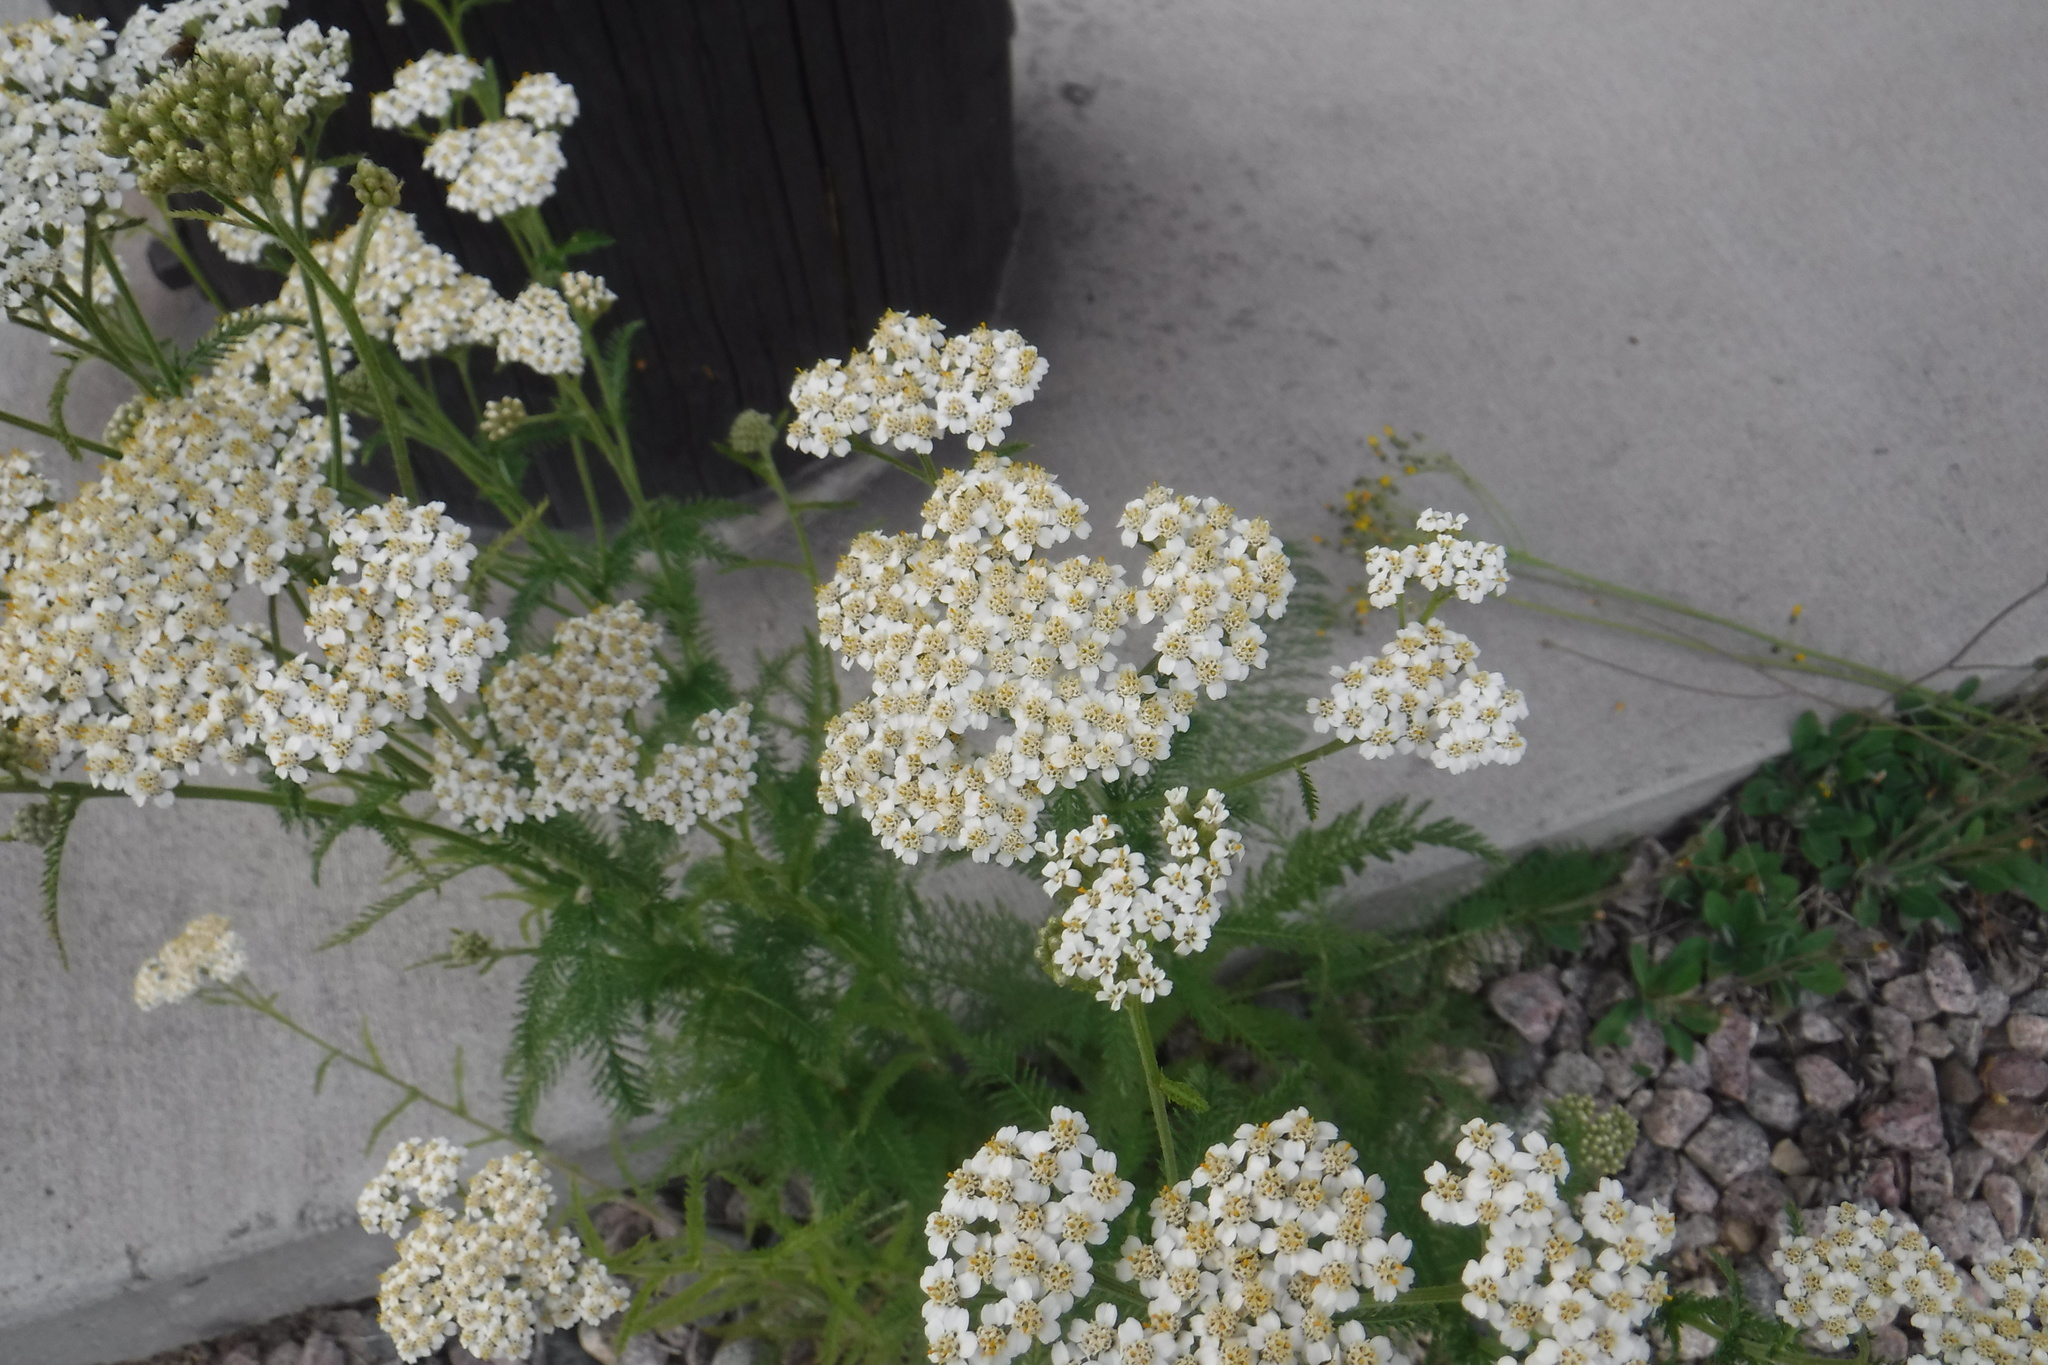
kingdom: Plantae
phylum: Tracheophyta
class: Magnoliopsida
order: Asterales
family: Asteraceae
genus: Achillea
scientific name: Achillea millefolium
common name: Yarrow
